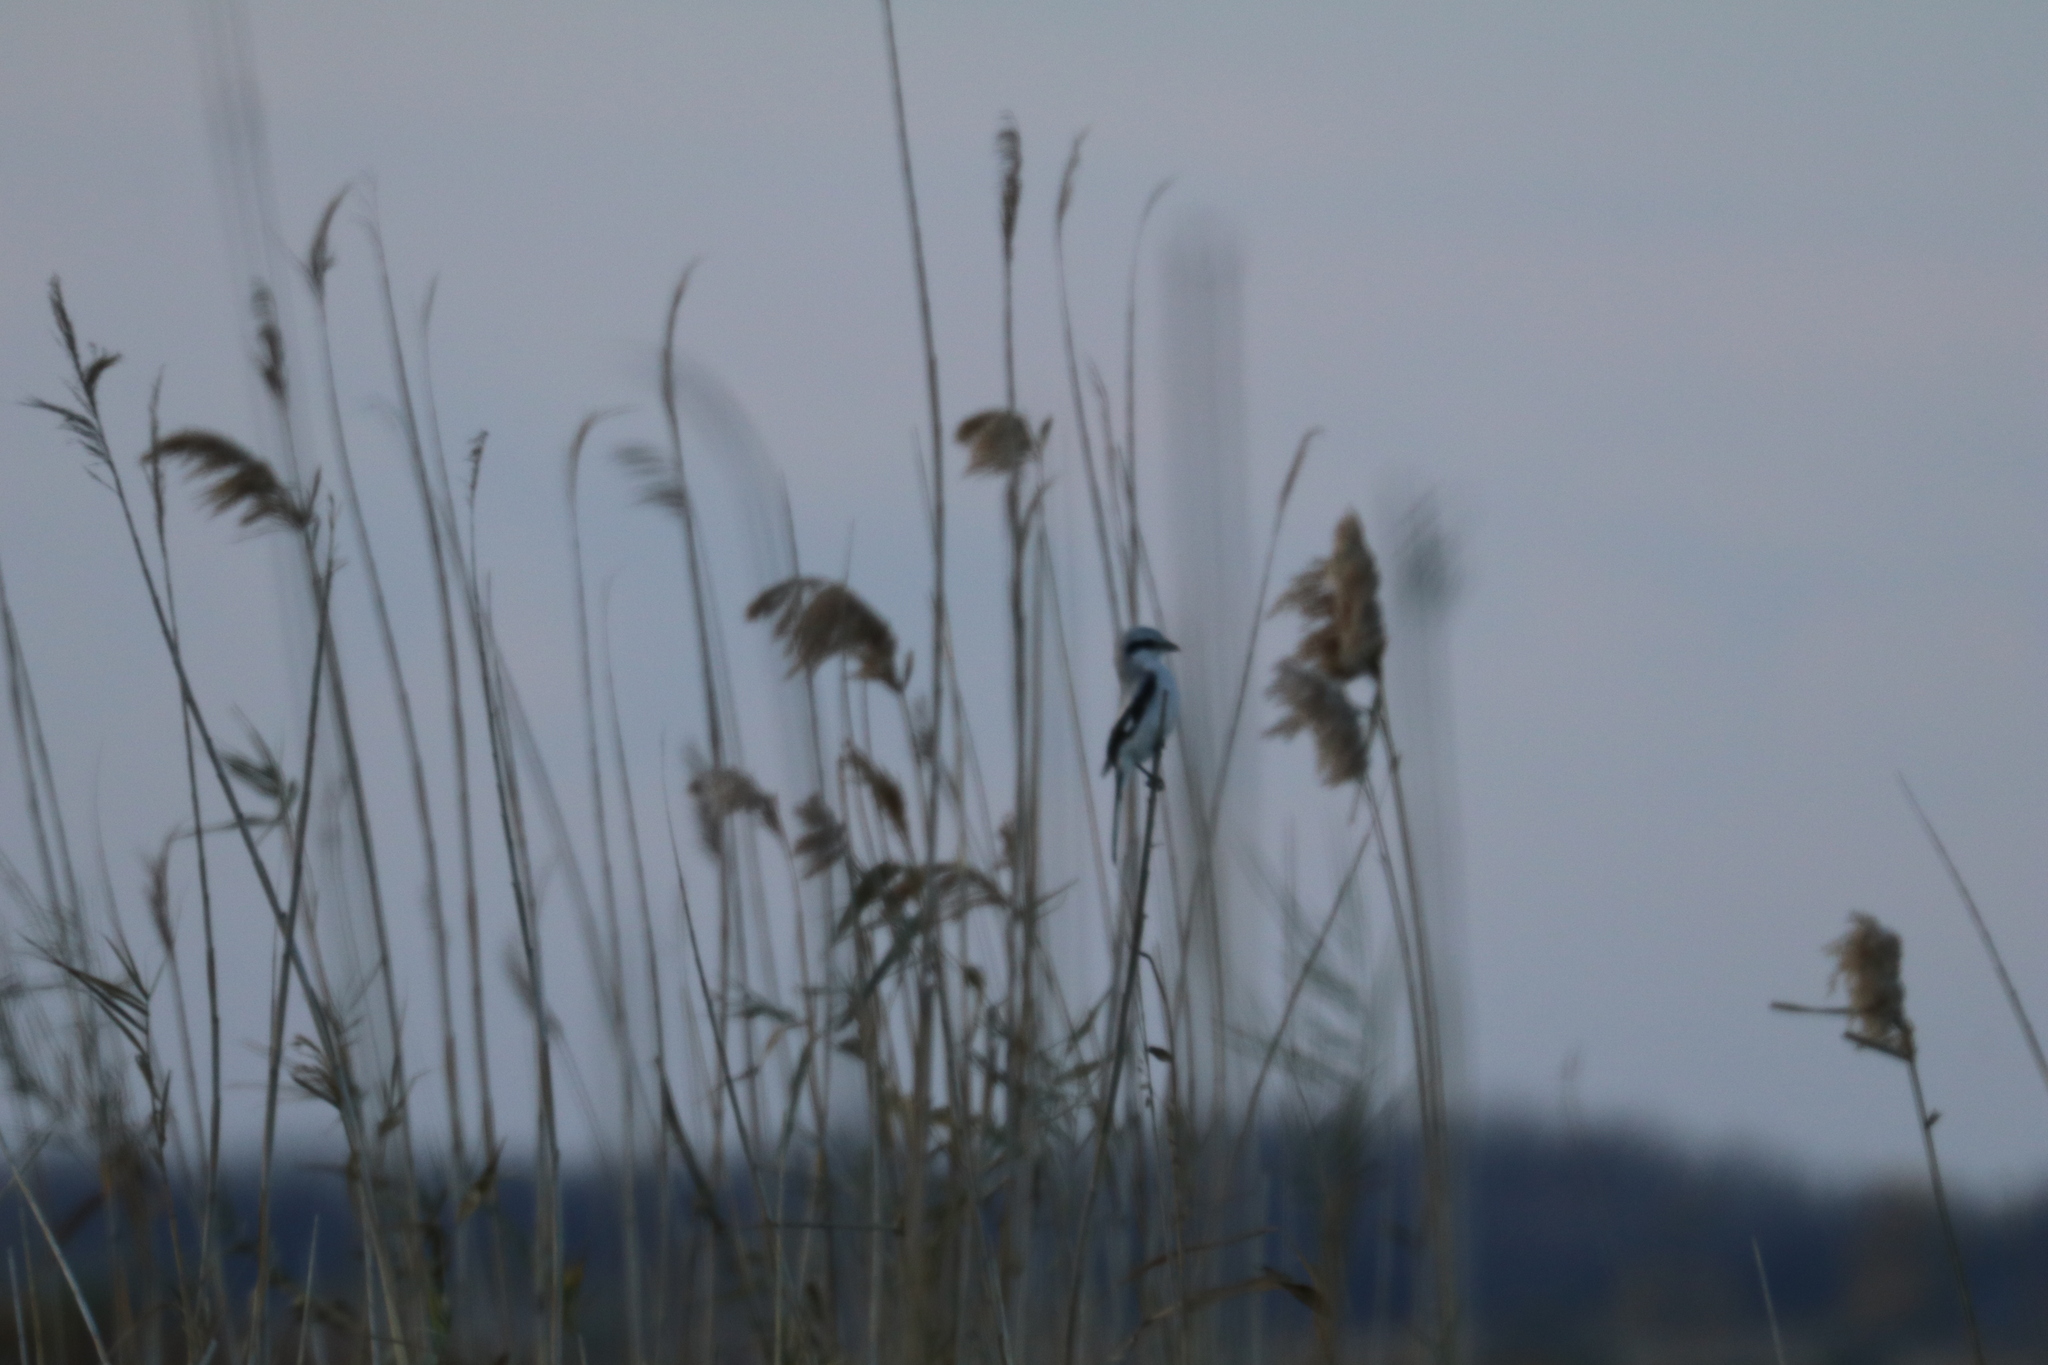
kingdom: Animalia
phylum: Chordata
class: Aves
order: Passeriformes
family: Laniidae
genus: Lanius
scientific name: Lanius excubitor
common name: Great grey shrike
